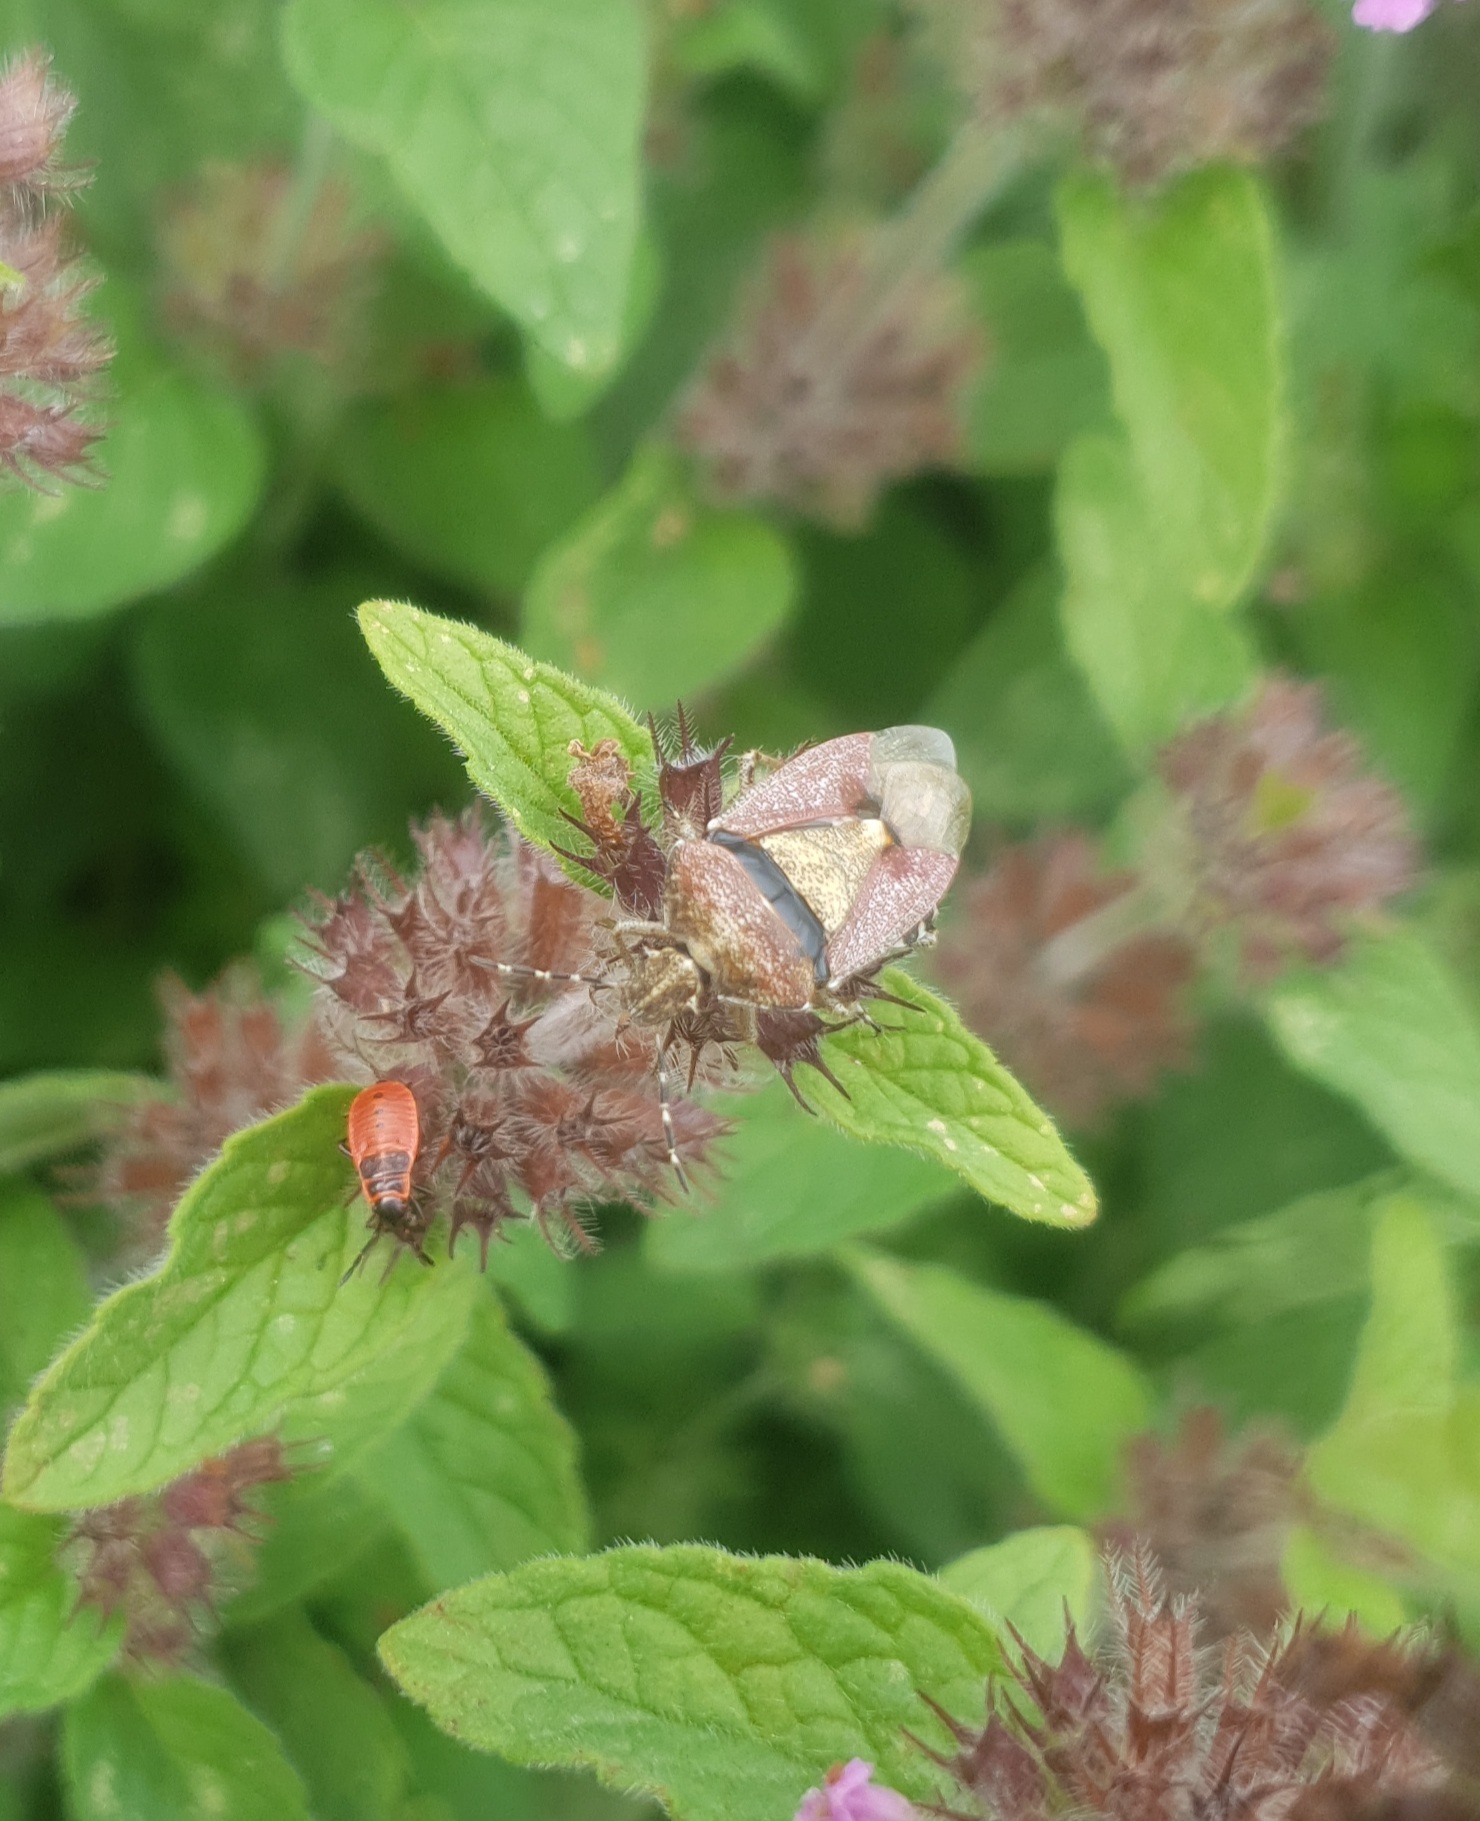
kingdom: Animalia
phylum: Arthropoda
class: Insecta
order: Hemiptera
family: Pentatomidae
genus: Dolycoris
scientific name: Dolycoris baccarum
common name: Sloe bug
